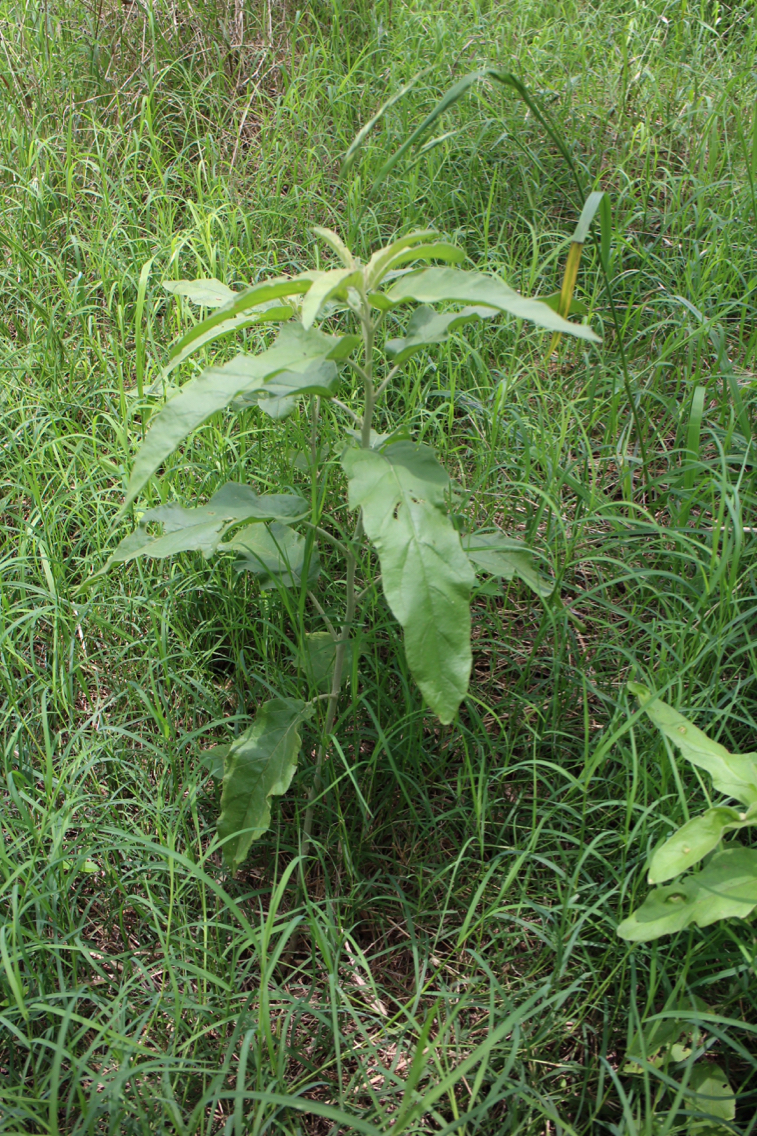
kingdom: Plantae
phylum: Tracheophyta
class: Magnoliopsida
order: Solanales
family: Solanaceae
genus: Solanum
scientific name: Solanum elaeagnifolium
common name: Silverleaf nightshade
